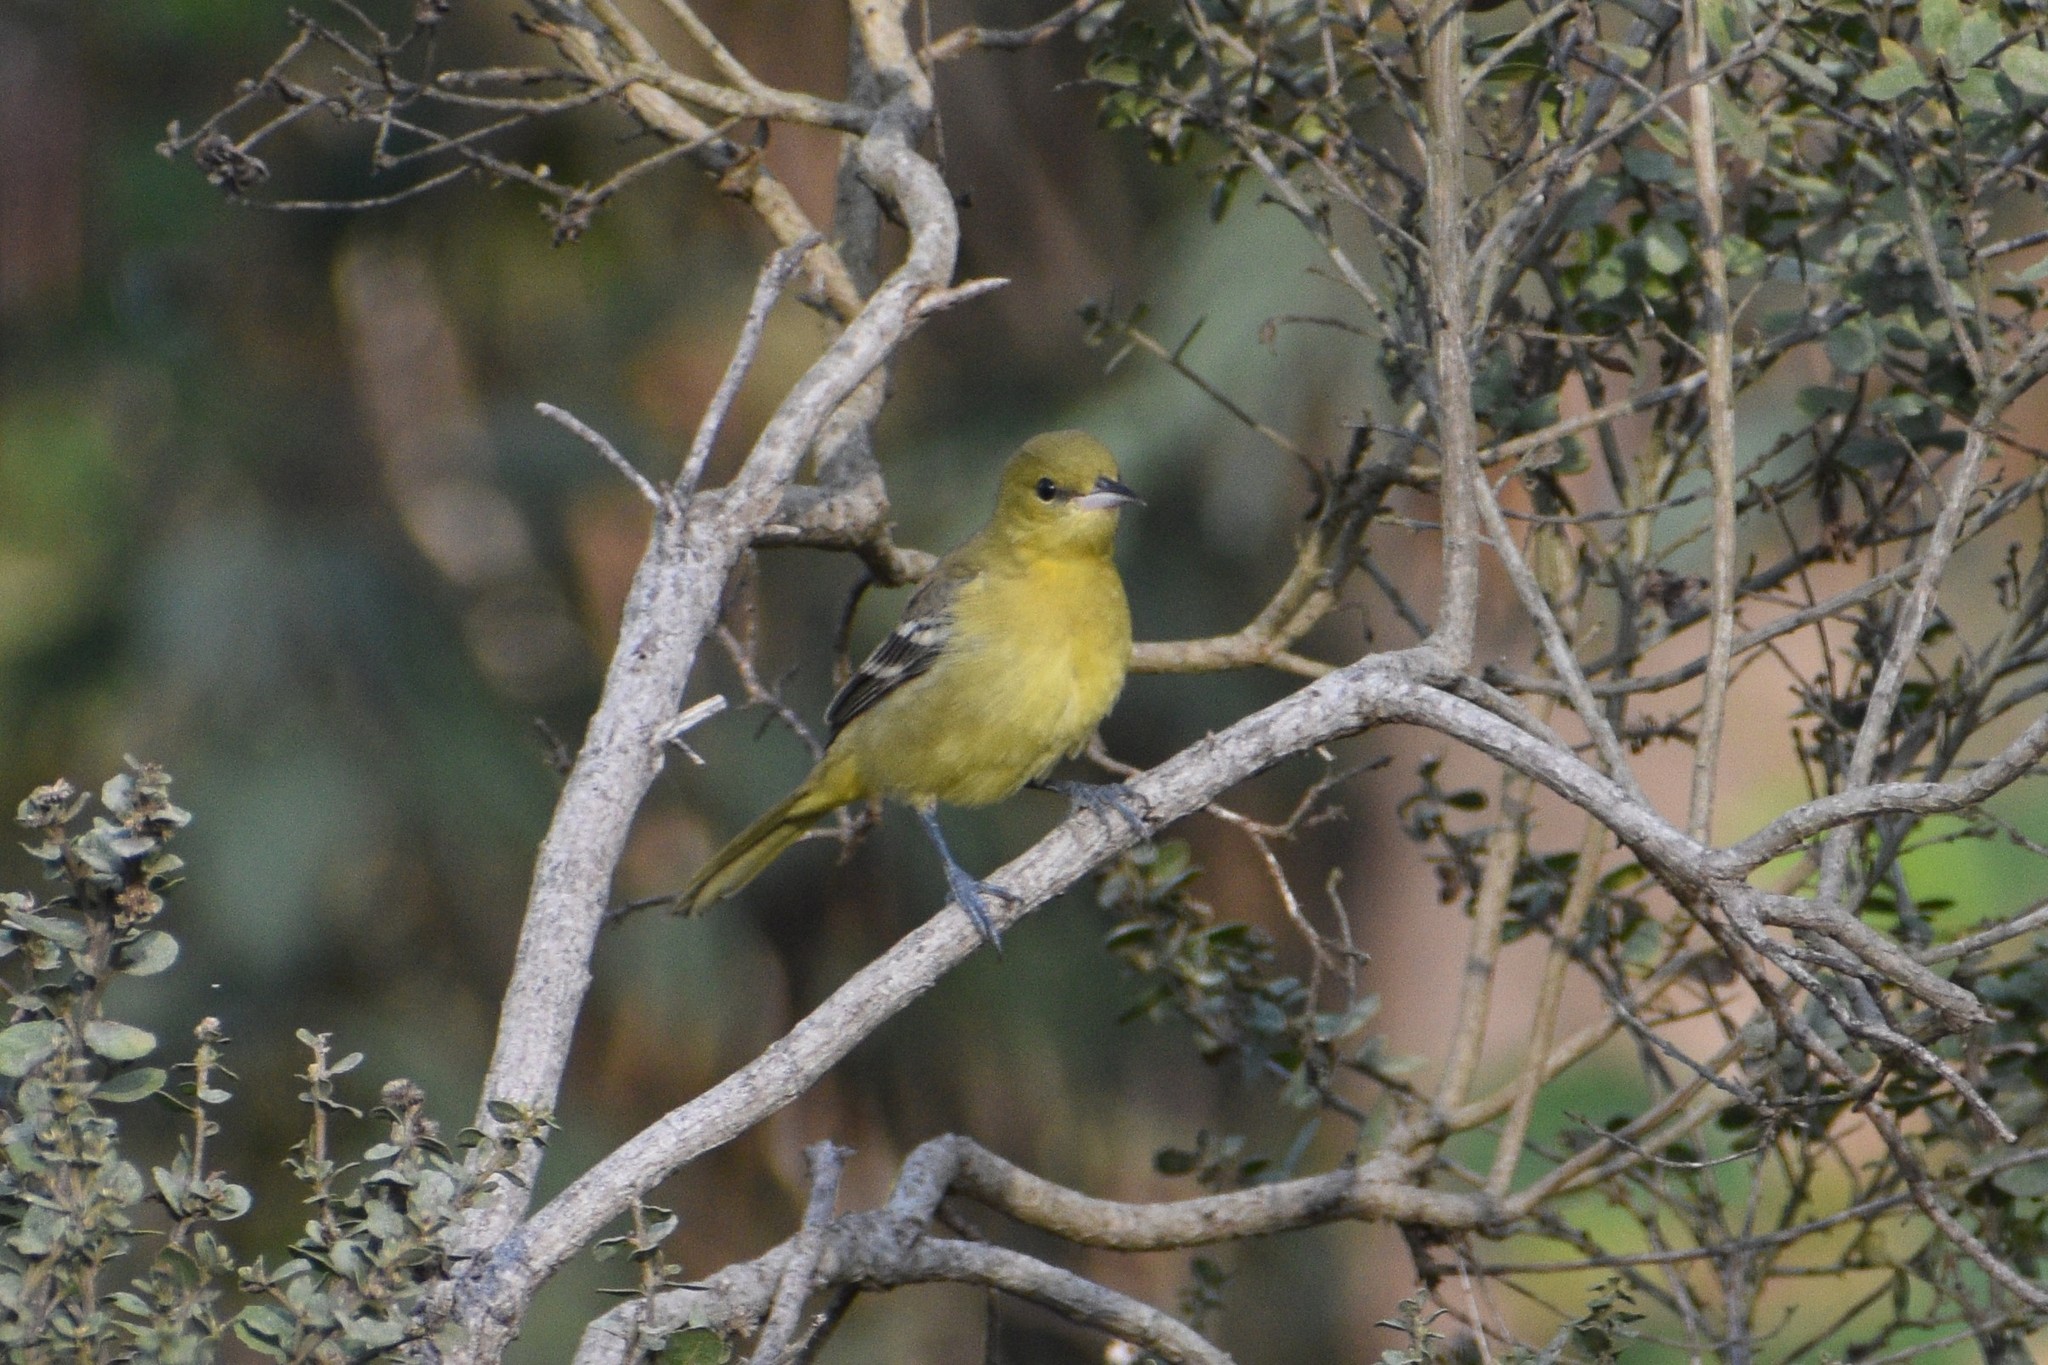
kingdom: Animalia
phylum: Chordata
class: Aves
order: Passeriformes
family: Icteridae
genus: Icterus
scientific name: Icterus cucullatus
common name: Hooded oriole
